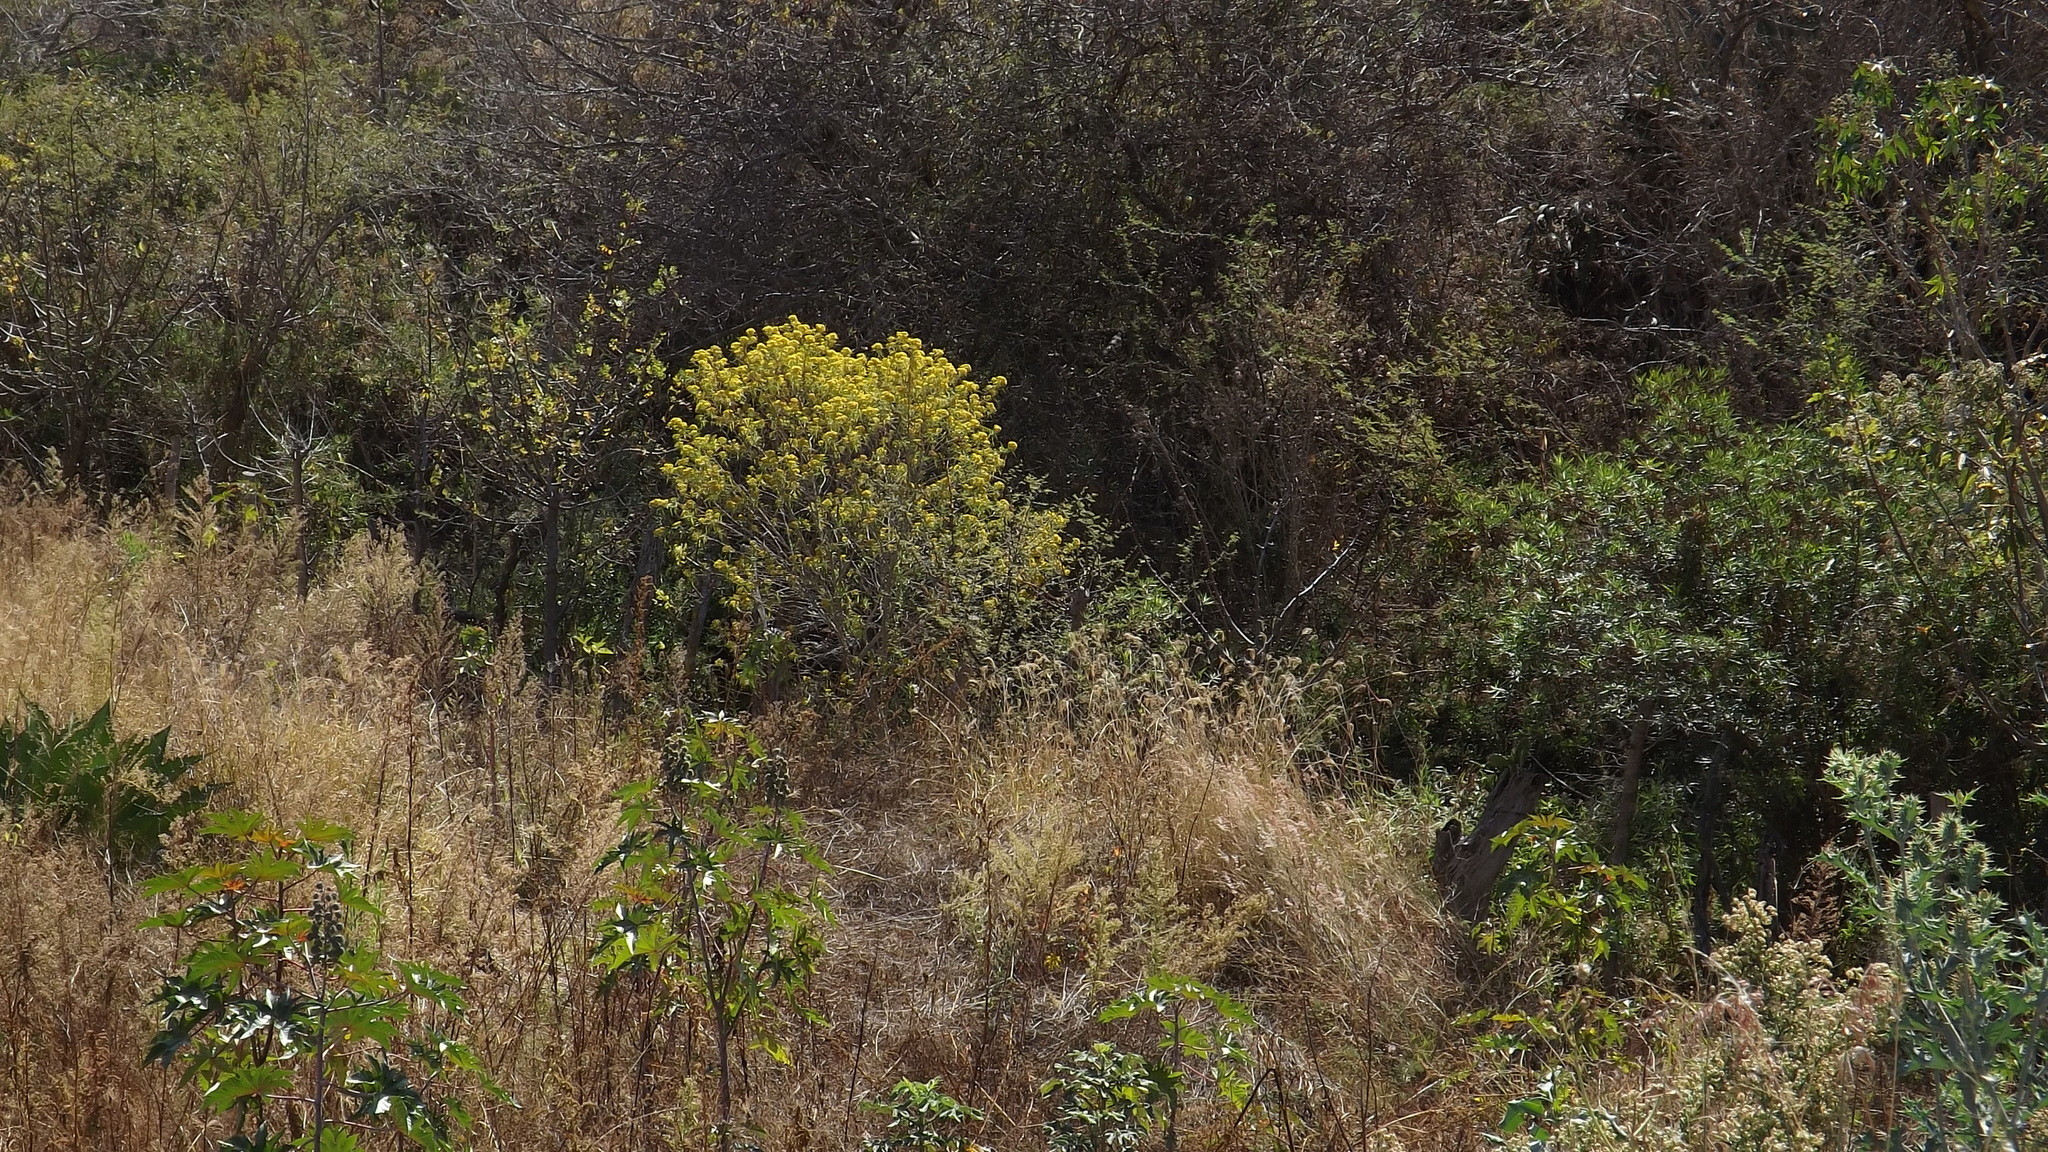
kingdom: Plantae
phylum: Tracheophyta
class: Magnoliopsida
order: Malpighiales
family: Euphorbiaceae
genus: Ricinus
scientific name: Ricinus communis
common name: Castor-oil-plant
